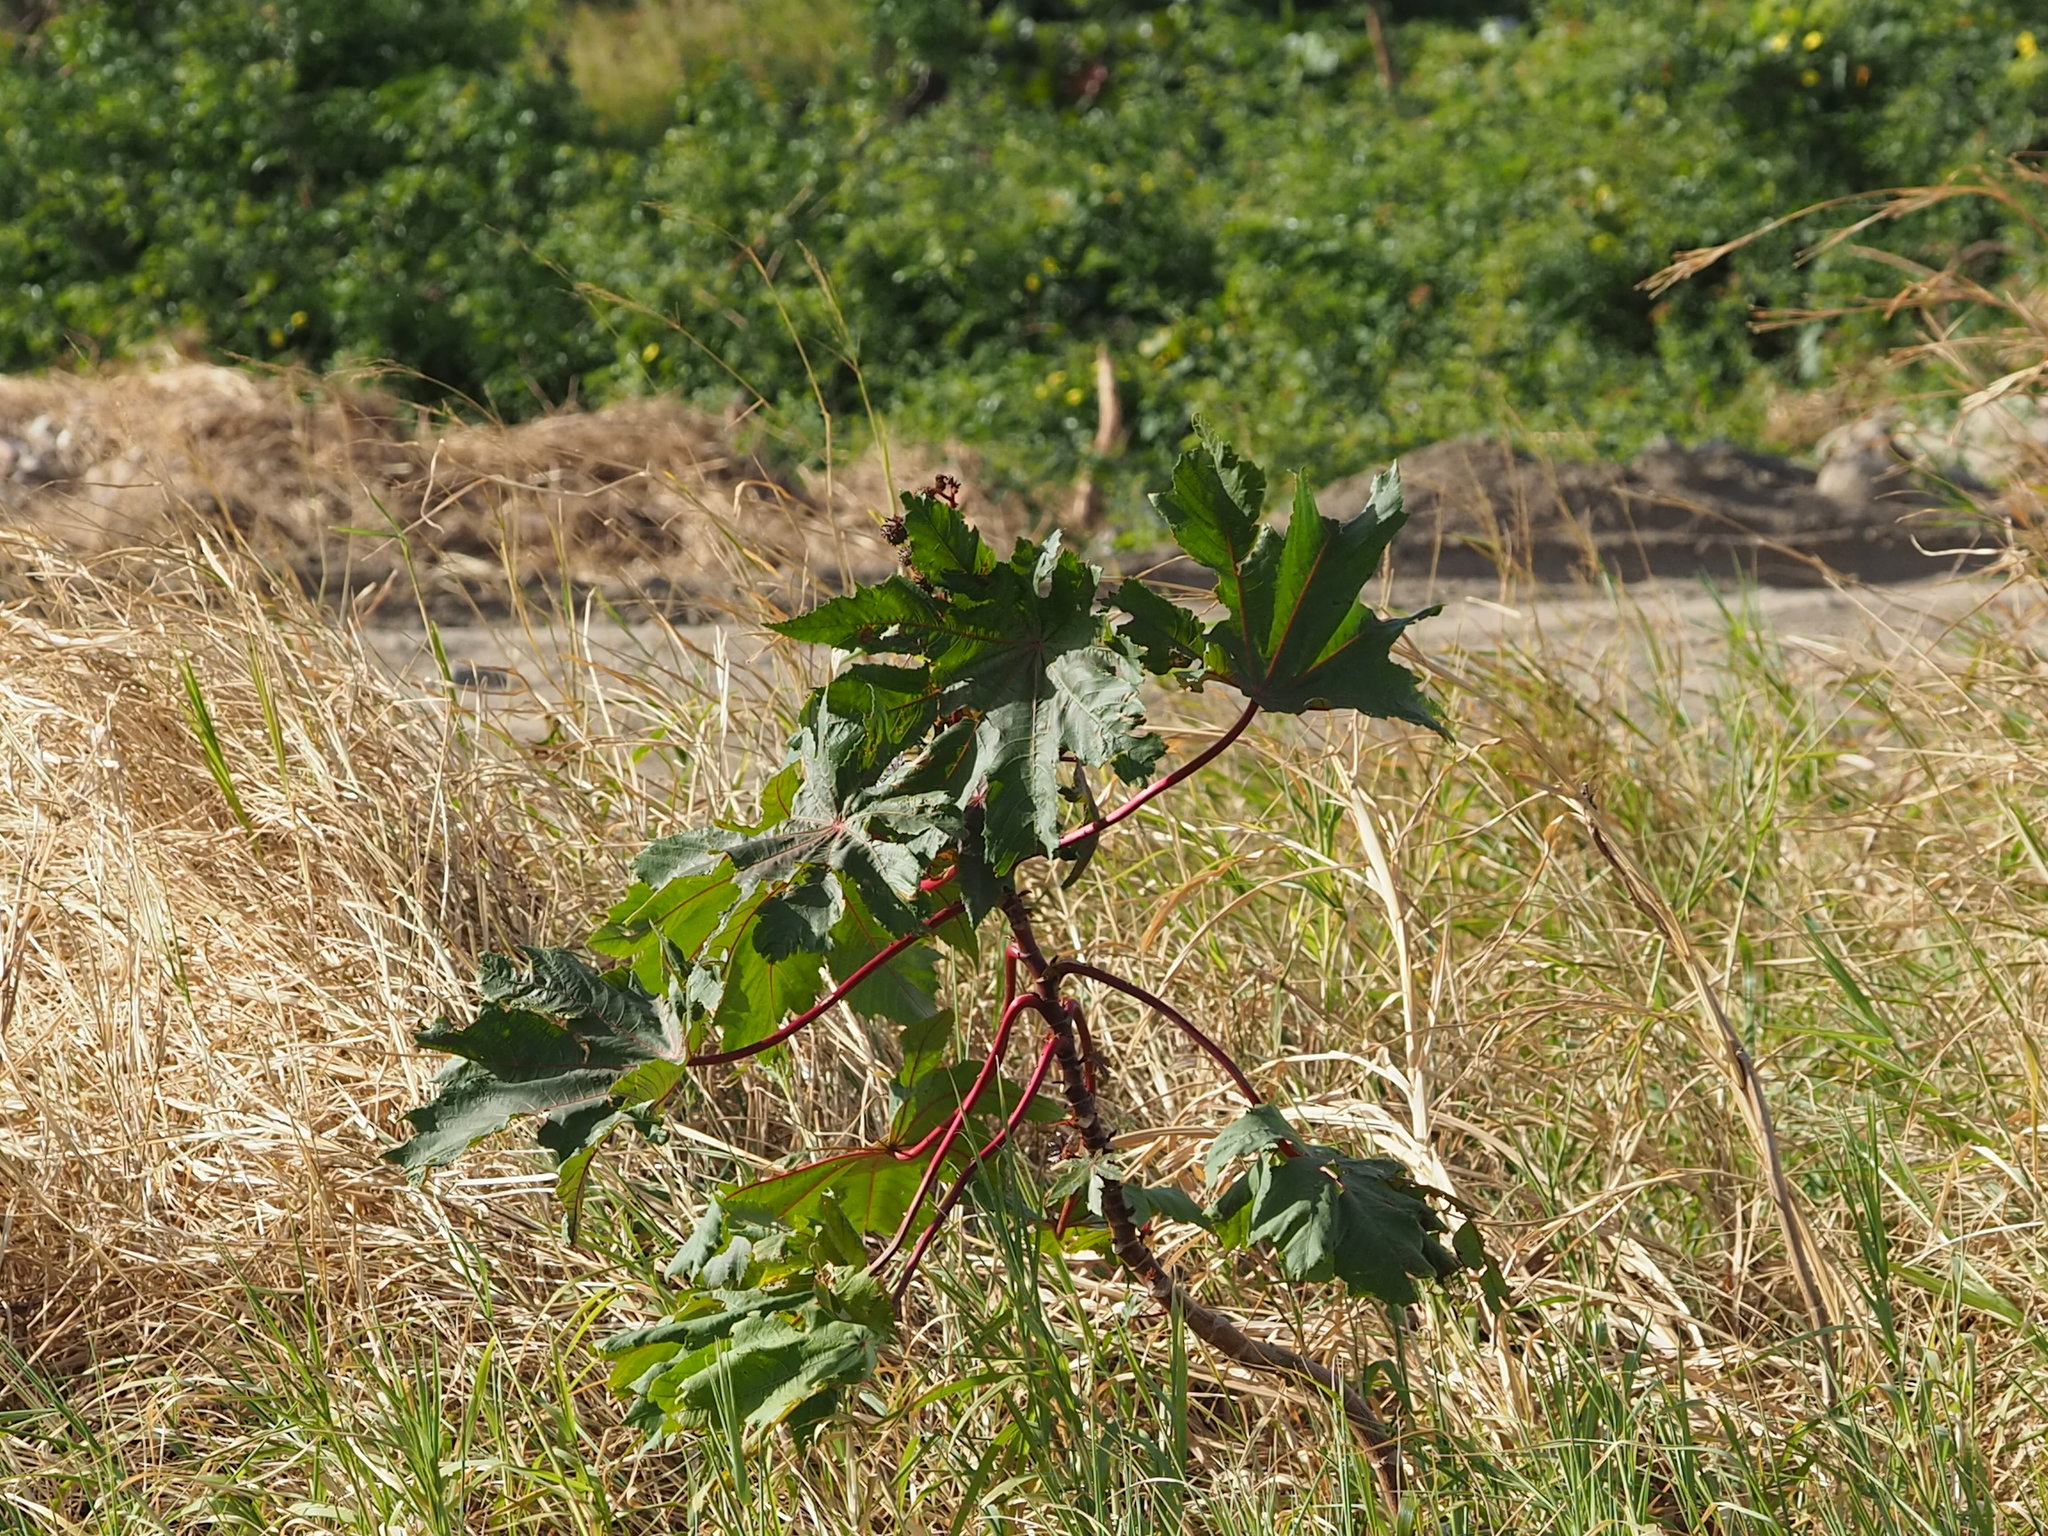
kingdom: Plantae
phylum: Tracheophyta
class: Magnoliopsida
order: Malpighiales
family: Euphorbiaceae
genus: Ricinus
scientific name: Ricinus communis
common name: Castor-oil-plant
